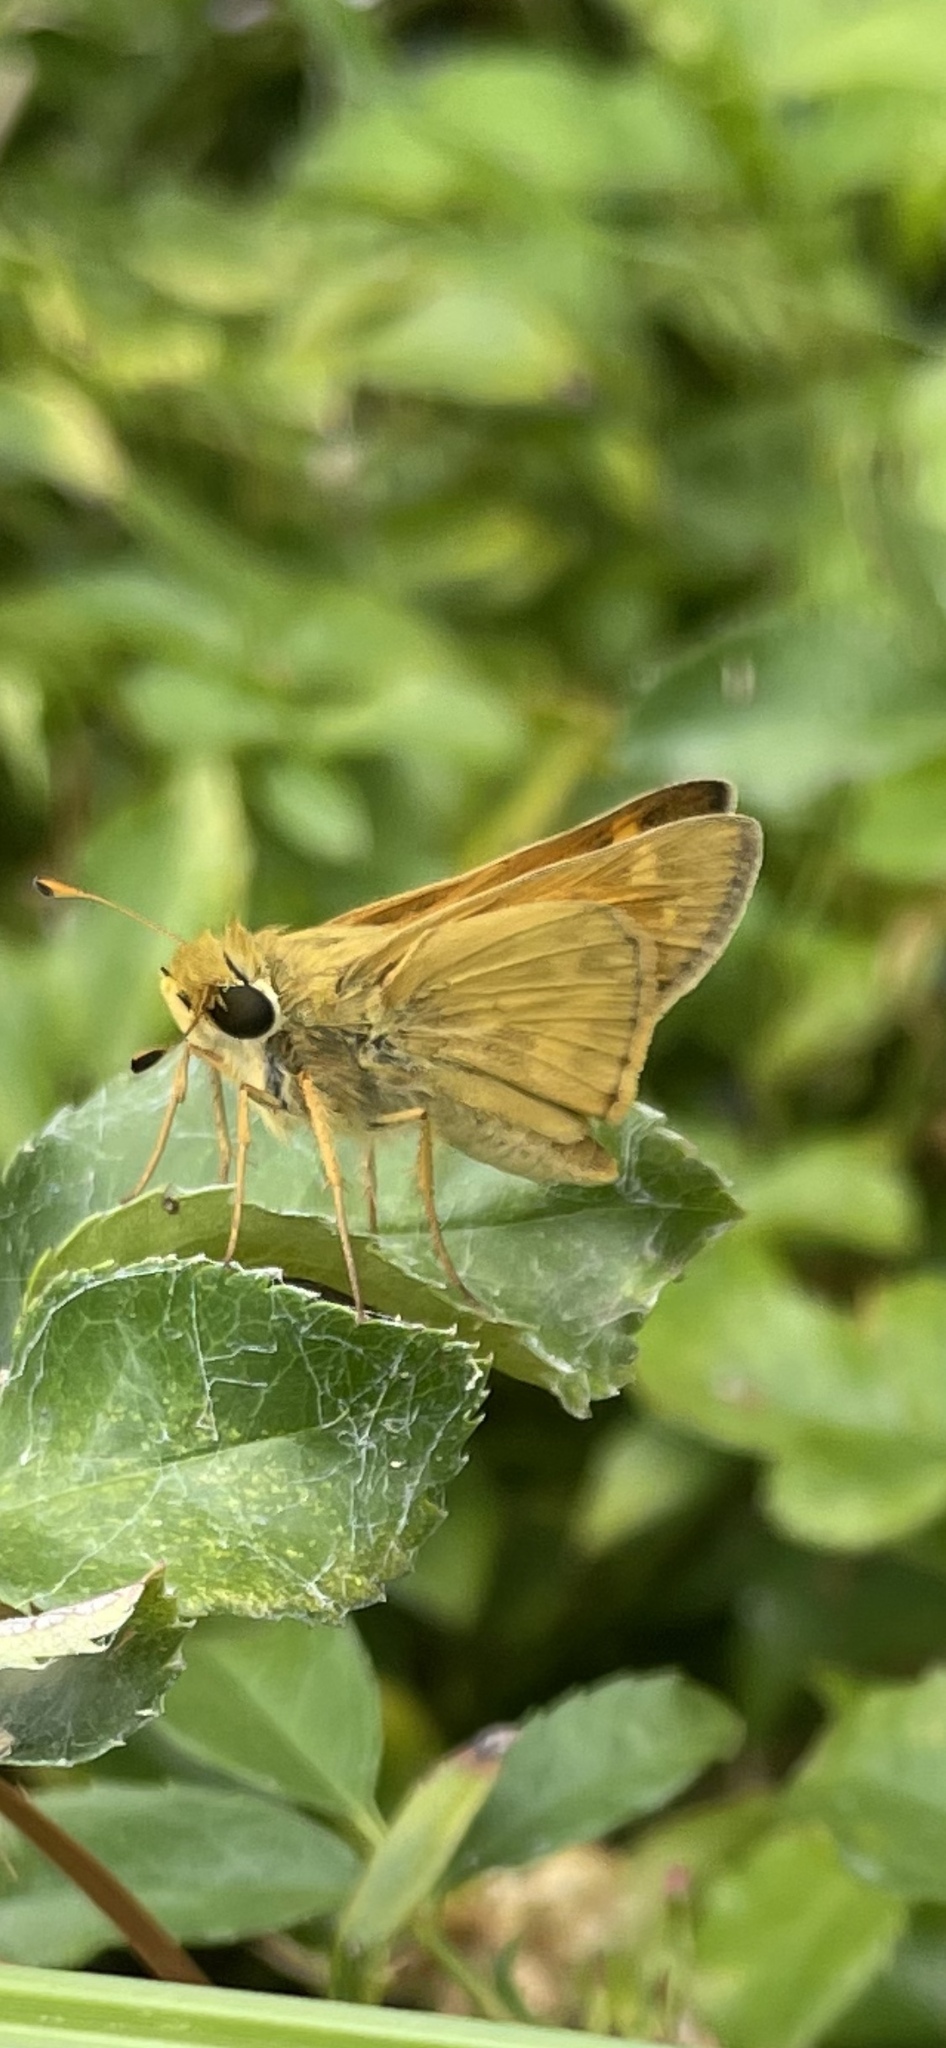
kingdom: Animalia
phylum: Arthropoda
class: Insecta
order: Lepidoptera
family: Hesperiidae
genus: Atalopedes
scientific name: Atalopedes
